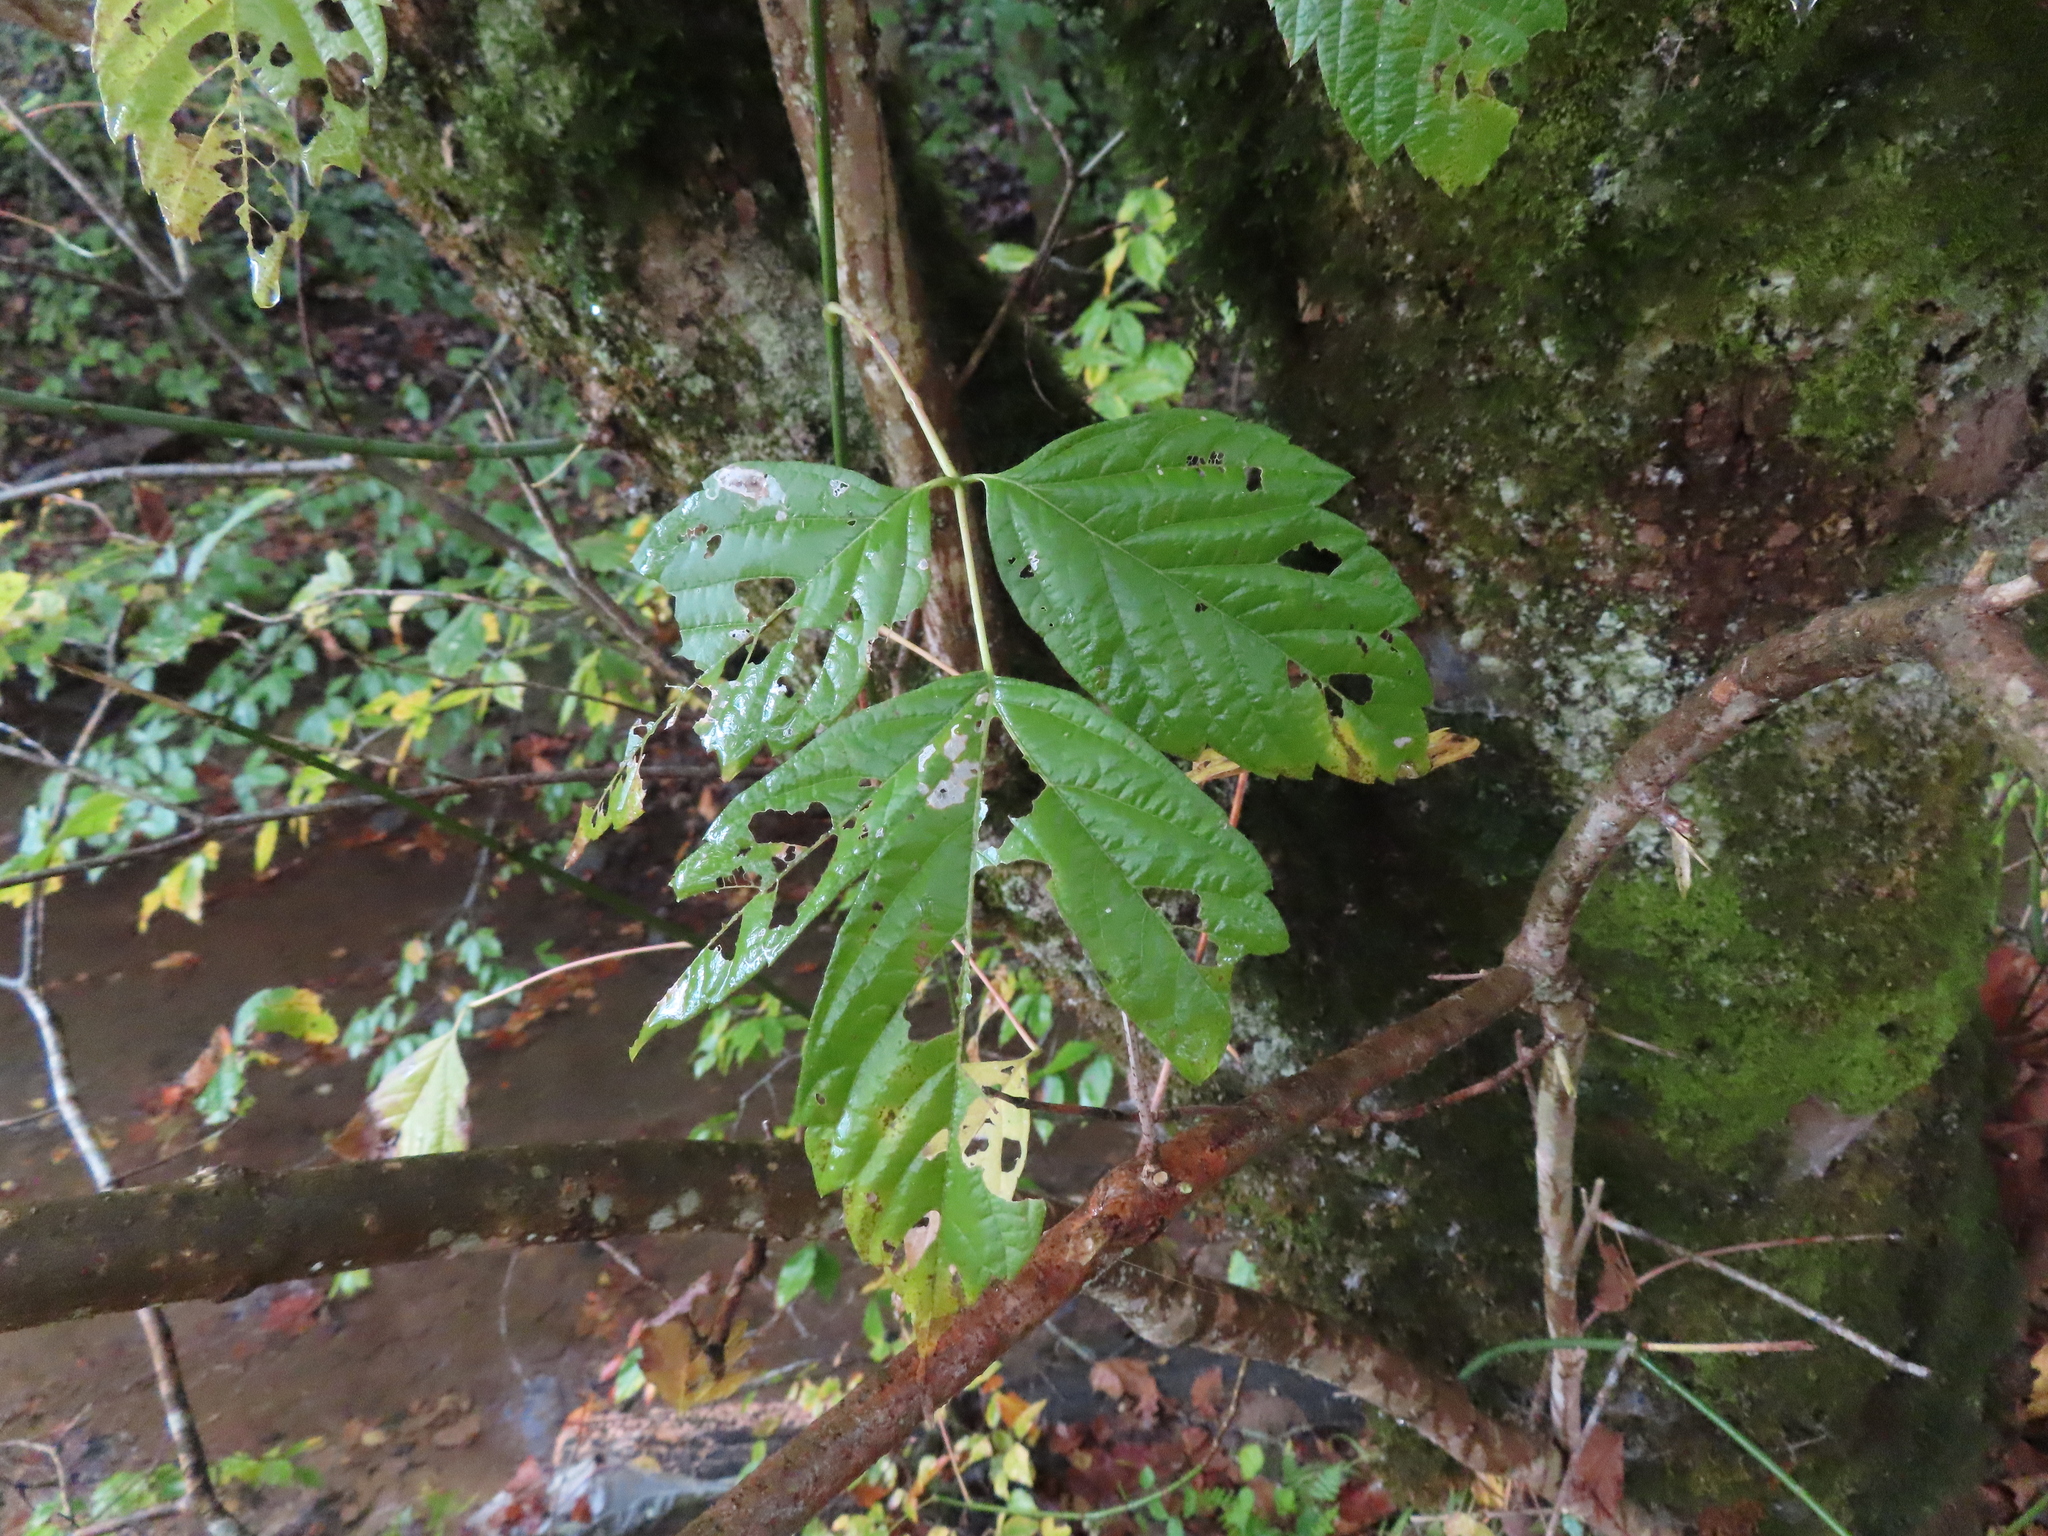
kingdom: Plantae
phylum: Tracheophyta
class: Magnoliopsida
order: Sapindales
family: Sapindaceae
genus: Acer
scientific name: Acer negundo
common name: Ashleaf maple
